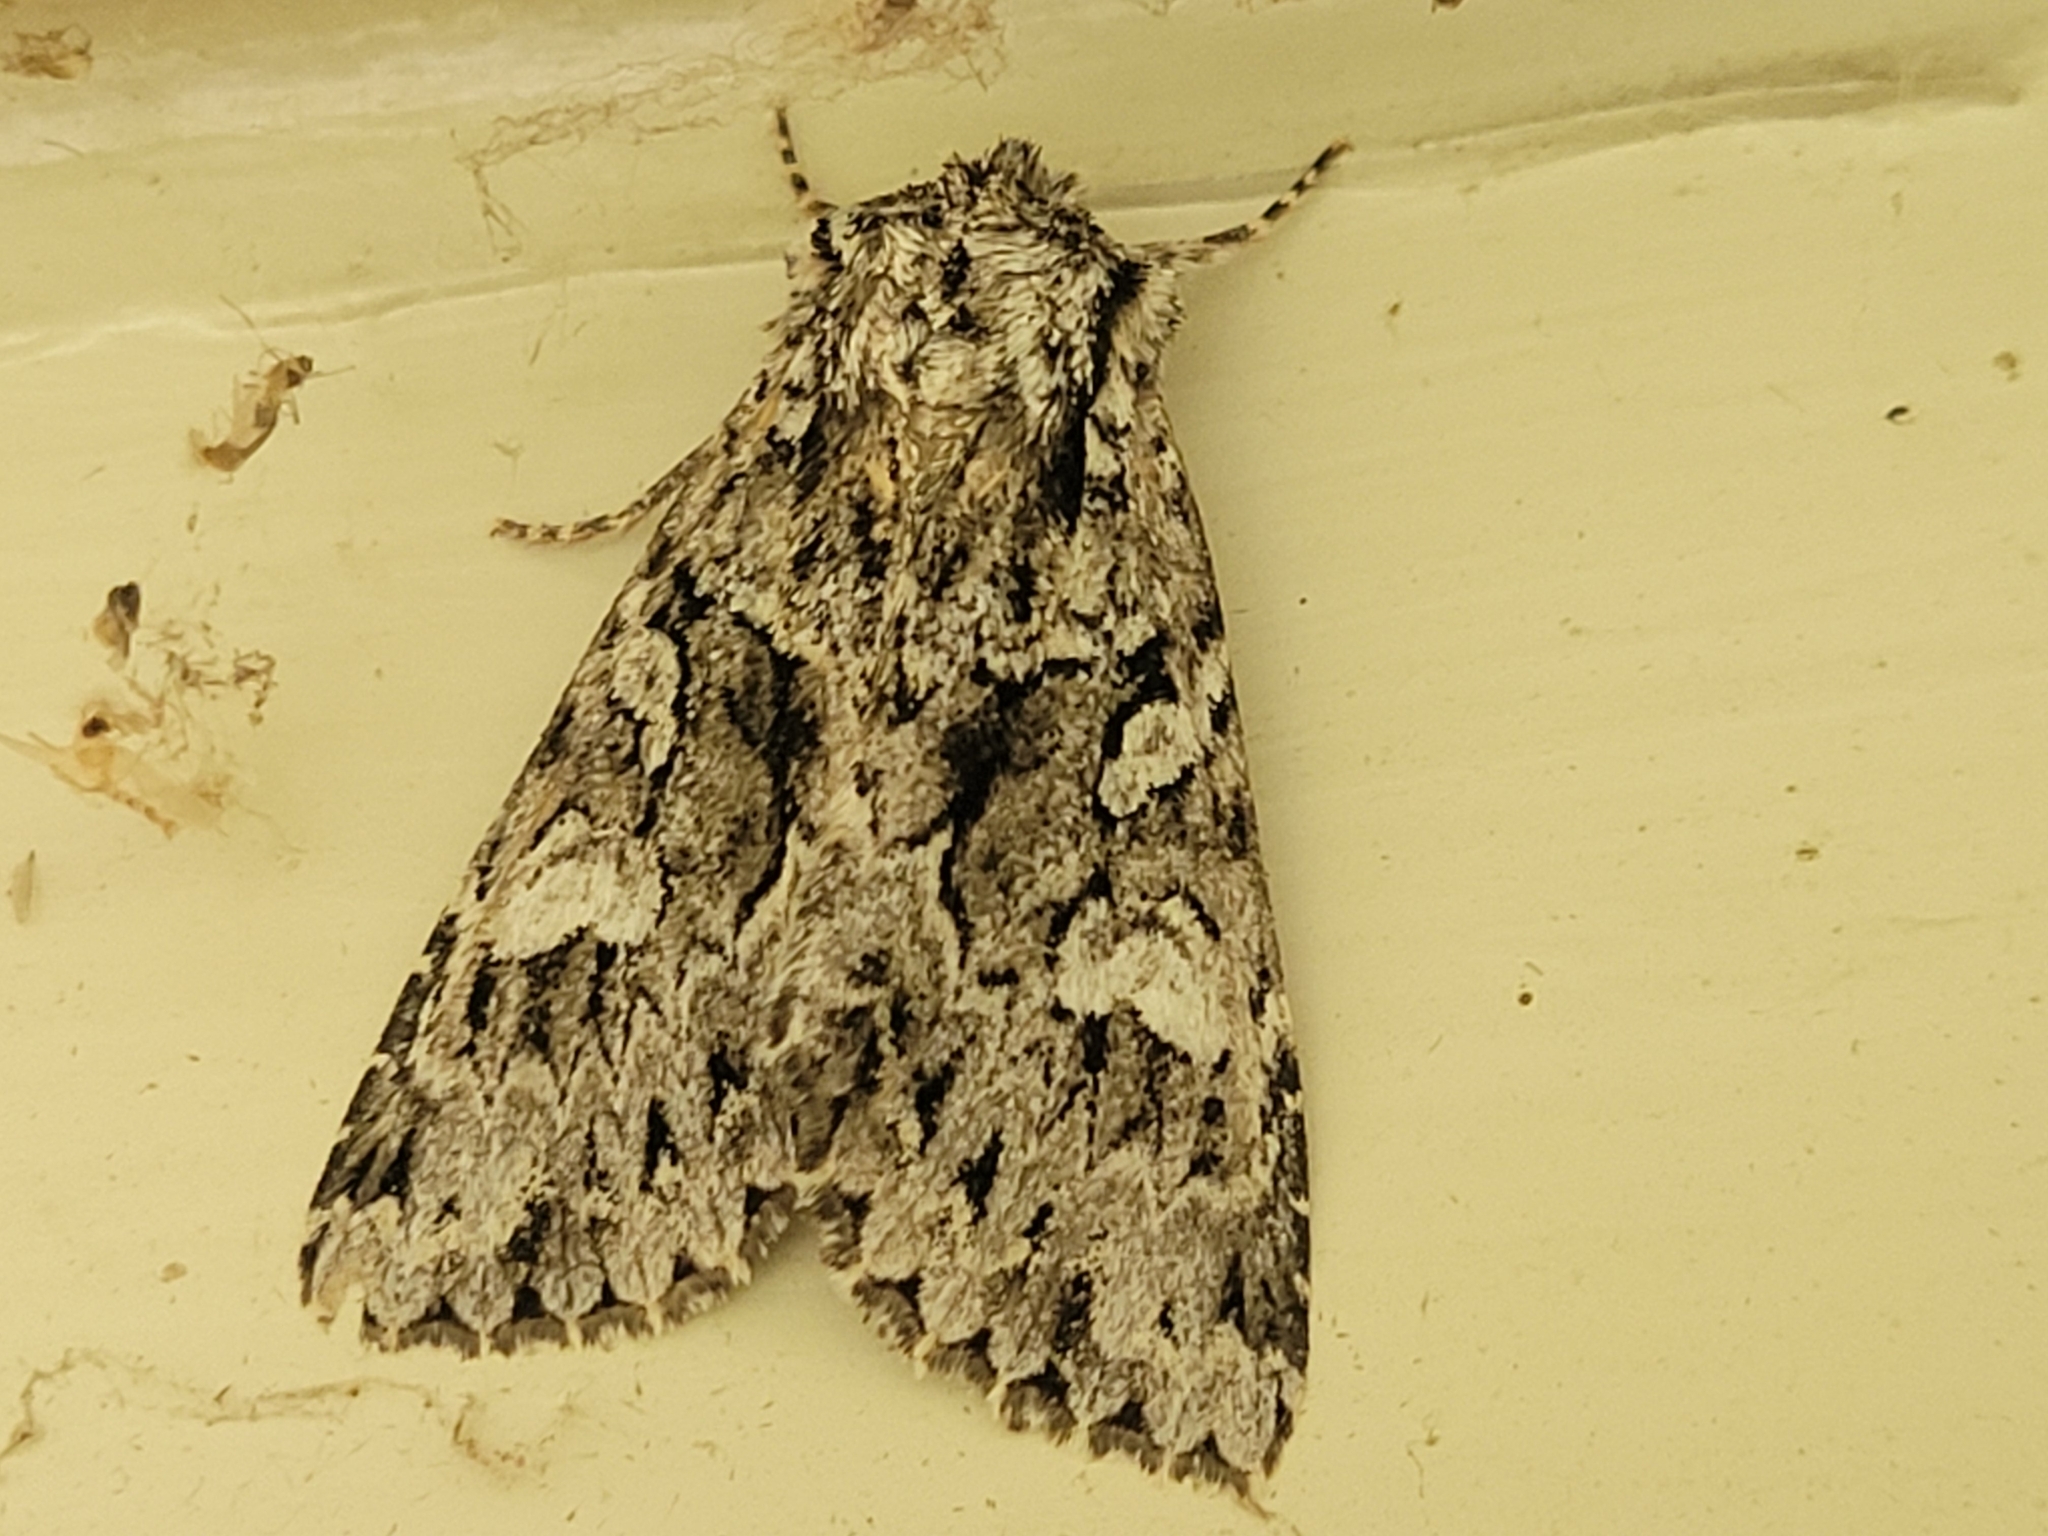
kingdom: Animalia
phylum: Arthropoda
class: Insecta
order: Lepidoptera
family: Noctuidae
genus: Platypolia
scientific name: Platypolia anceps
